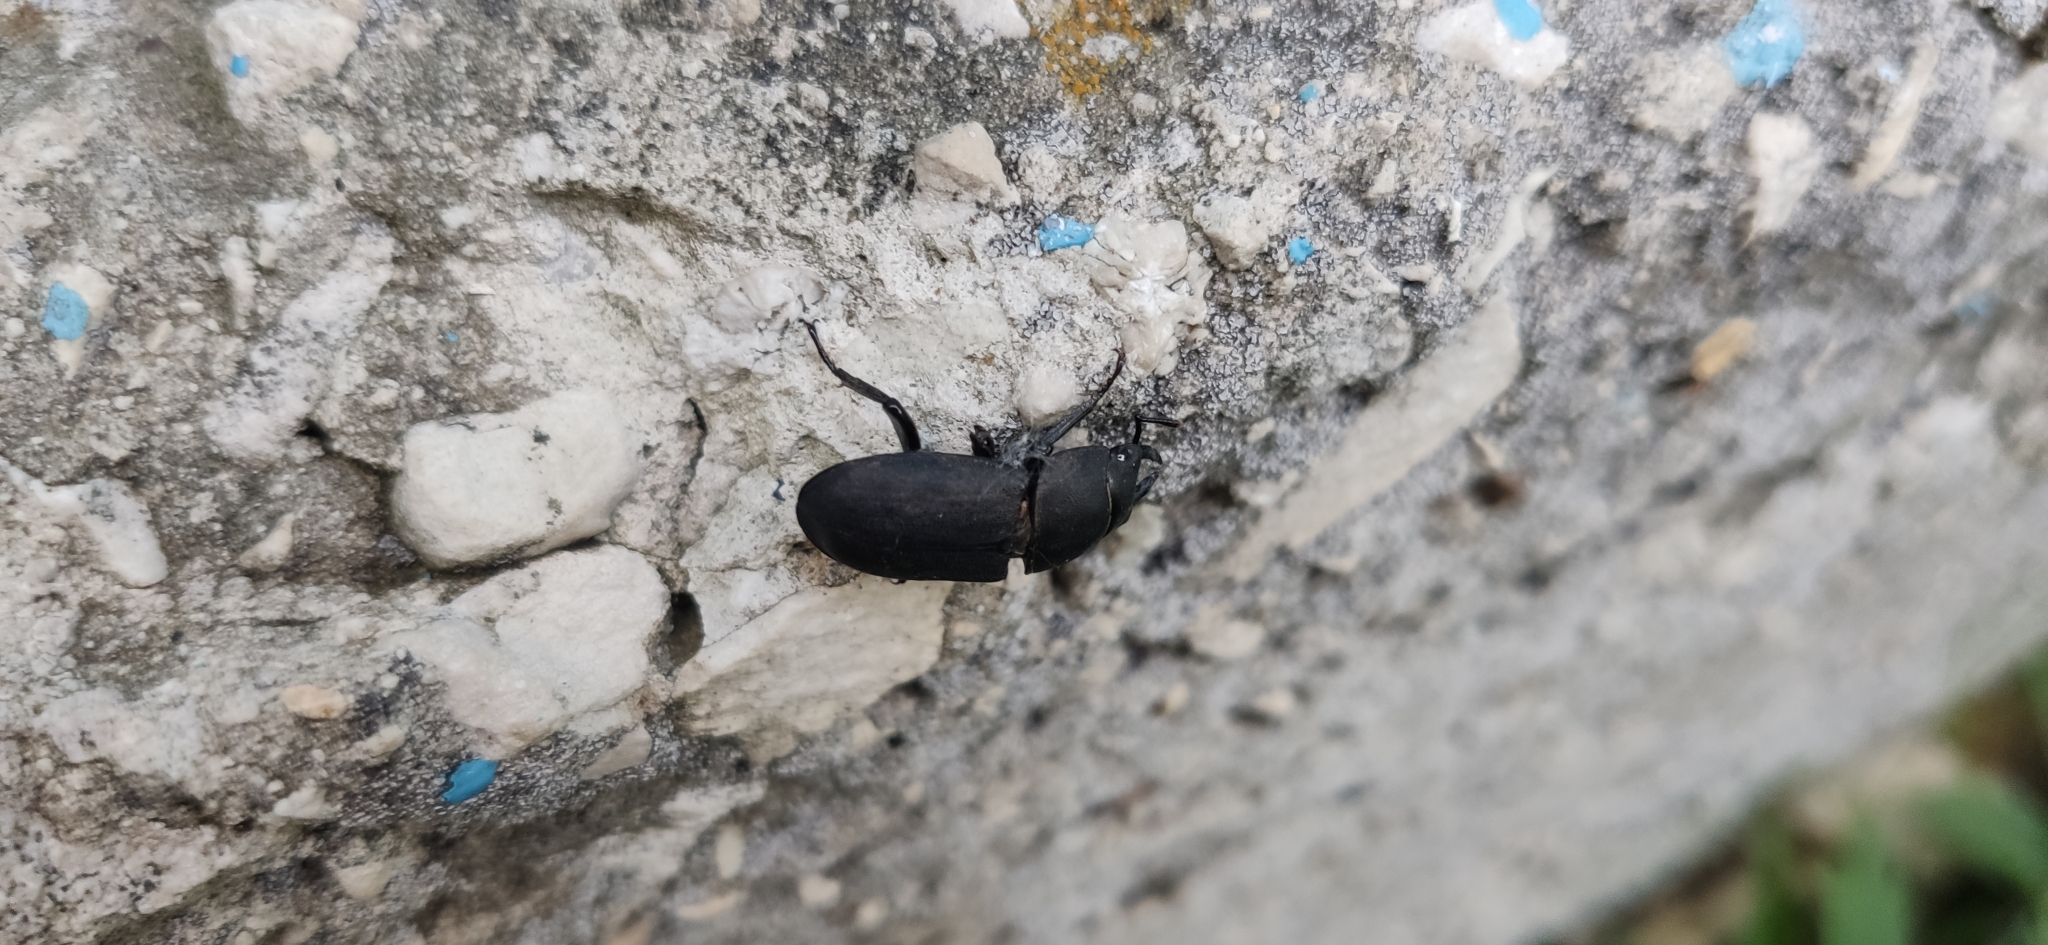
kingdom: Animalia
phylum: Arthropoda
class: Insecta
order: Coleoptera
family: Lucanidae
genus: Dorcus
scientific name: Dorcus parallelipipedus
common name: Lesser stag beetle
